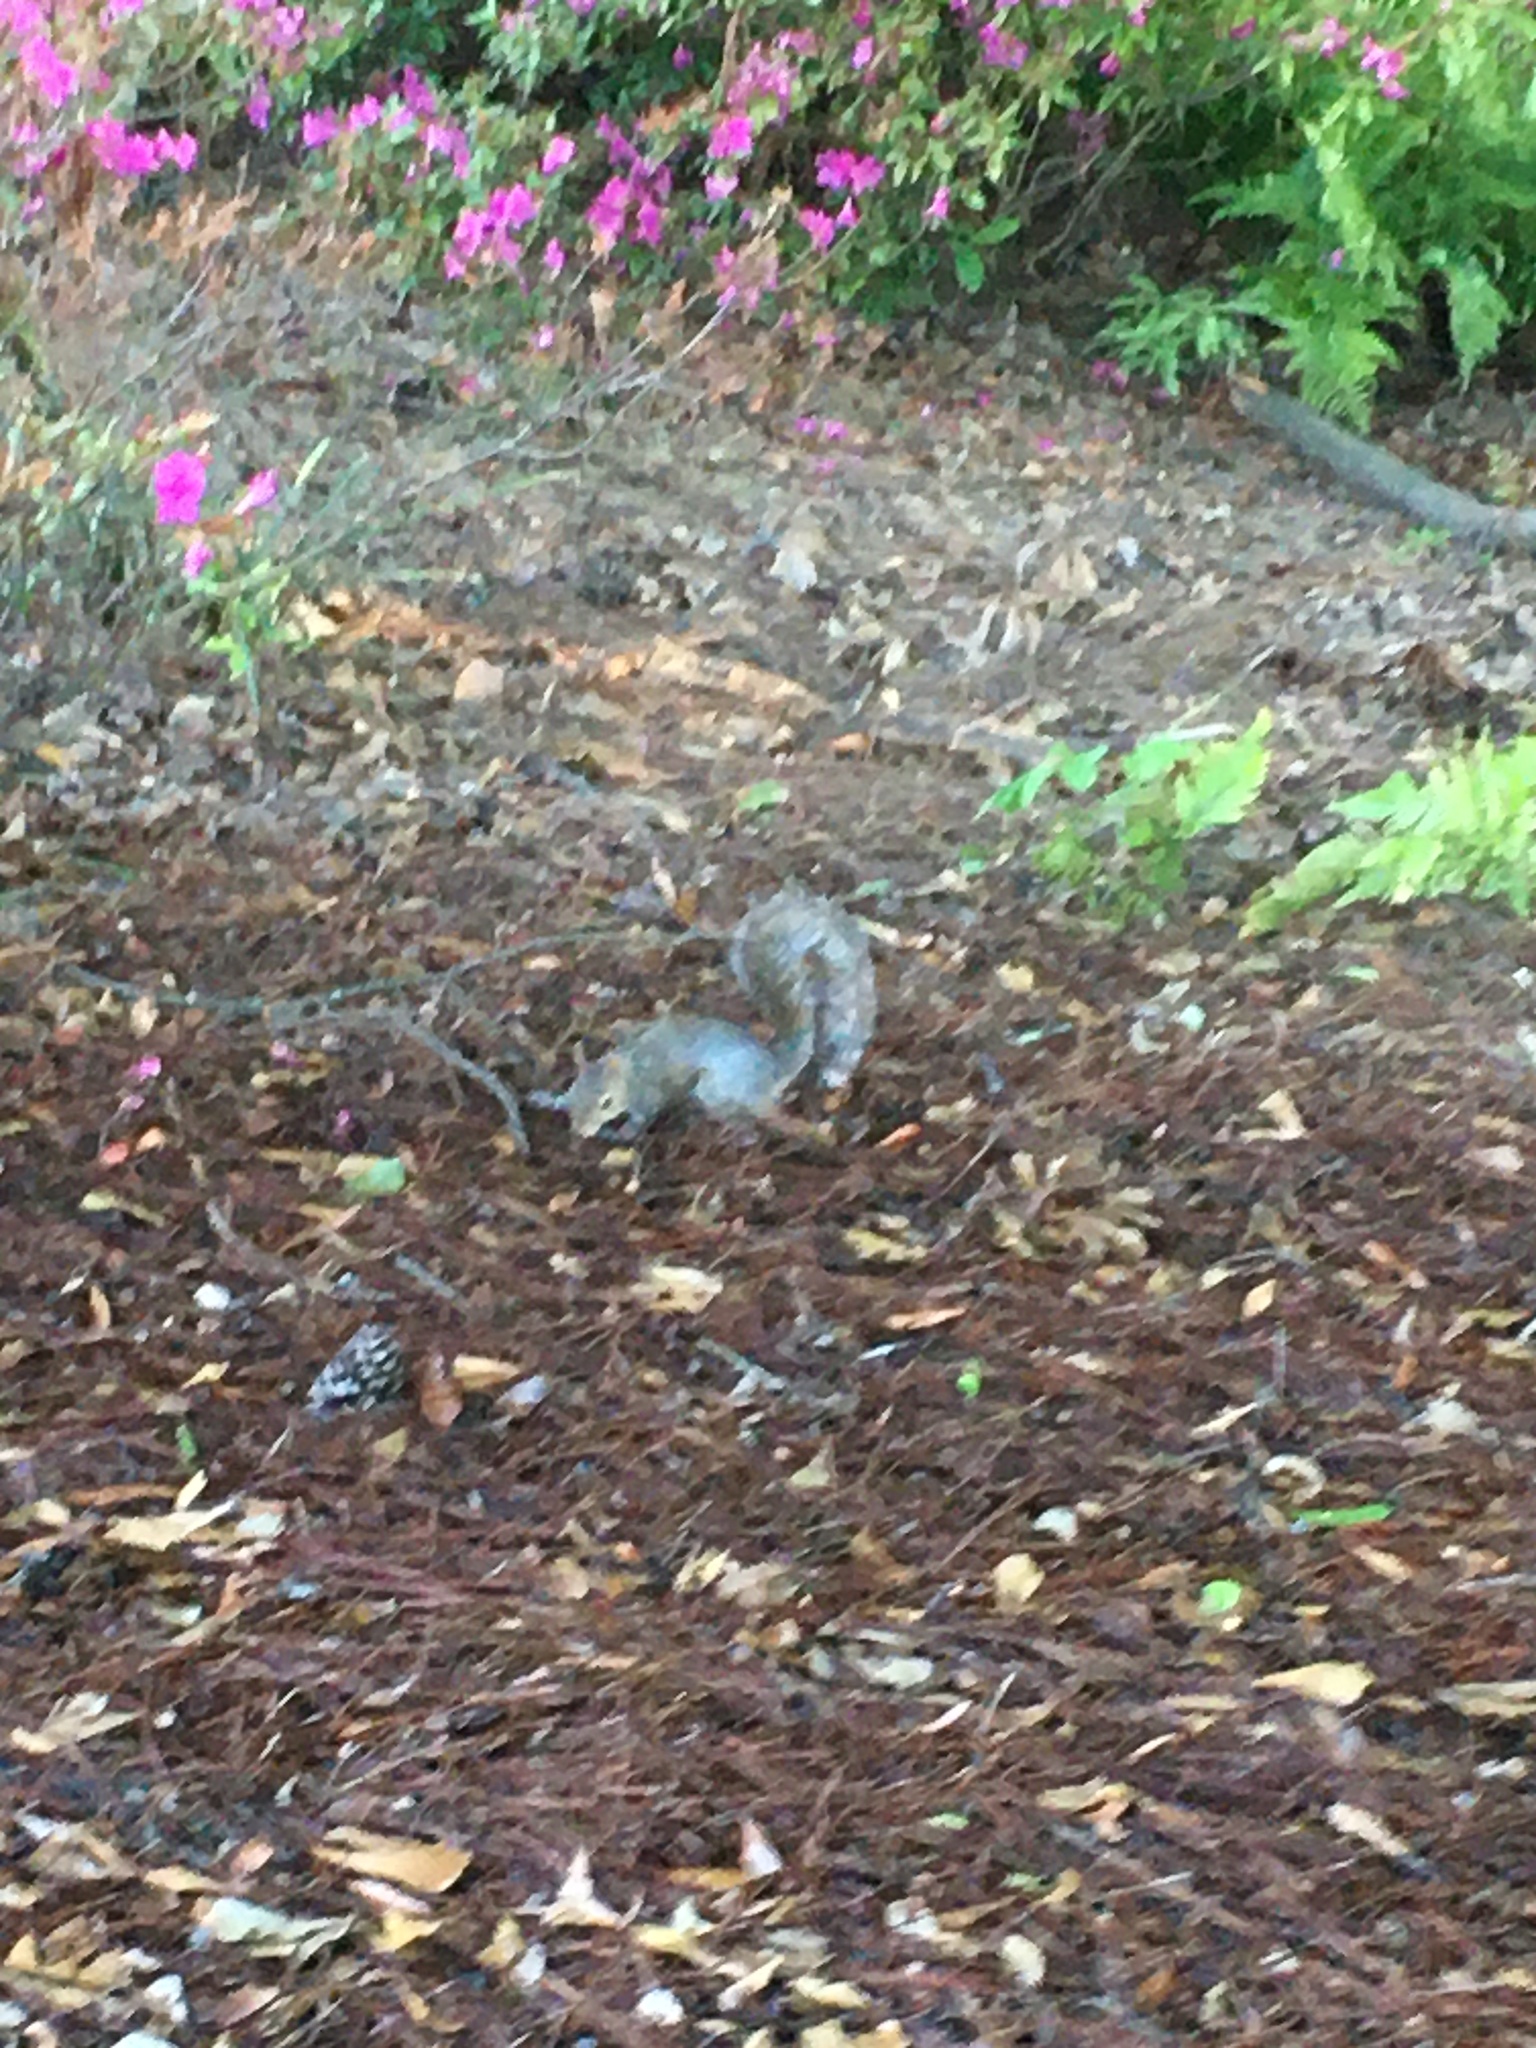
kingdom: Animalia
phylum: Chordata
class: Mammalia
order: Rodentia
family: Sciuridae
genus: Sciurus
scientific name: Sciurus carolinensis
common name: Eastern gray squirrel
